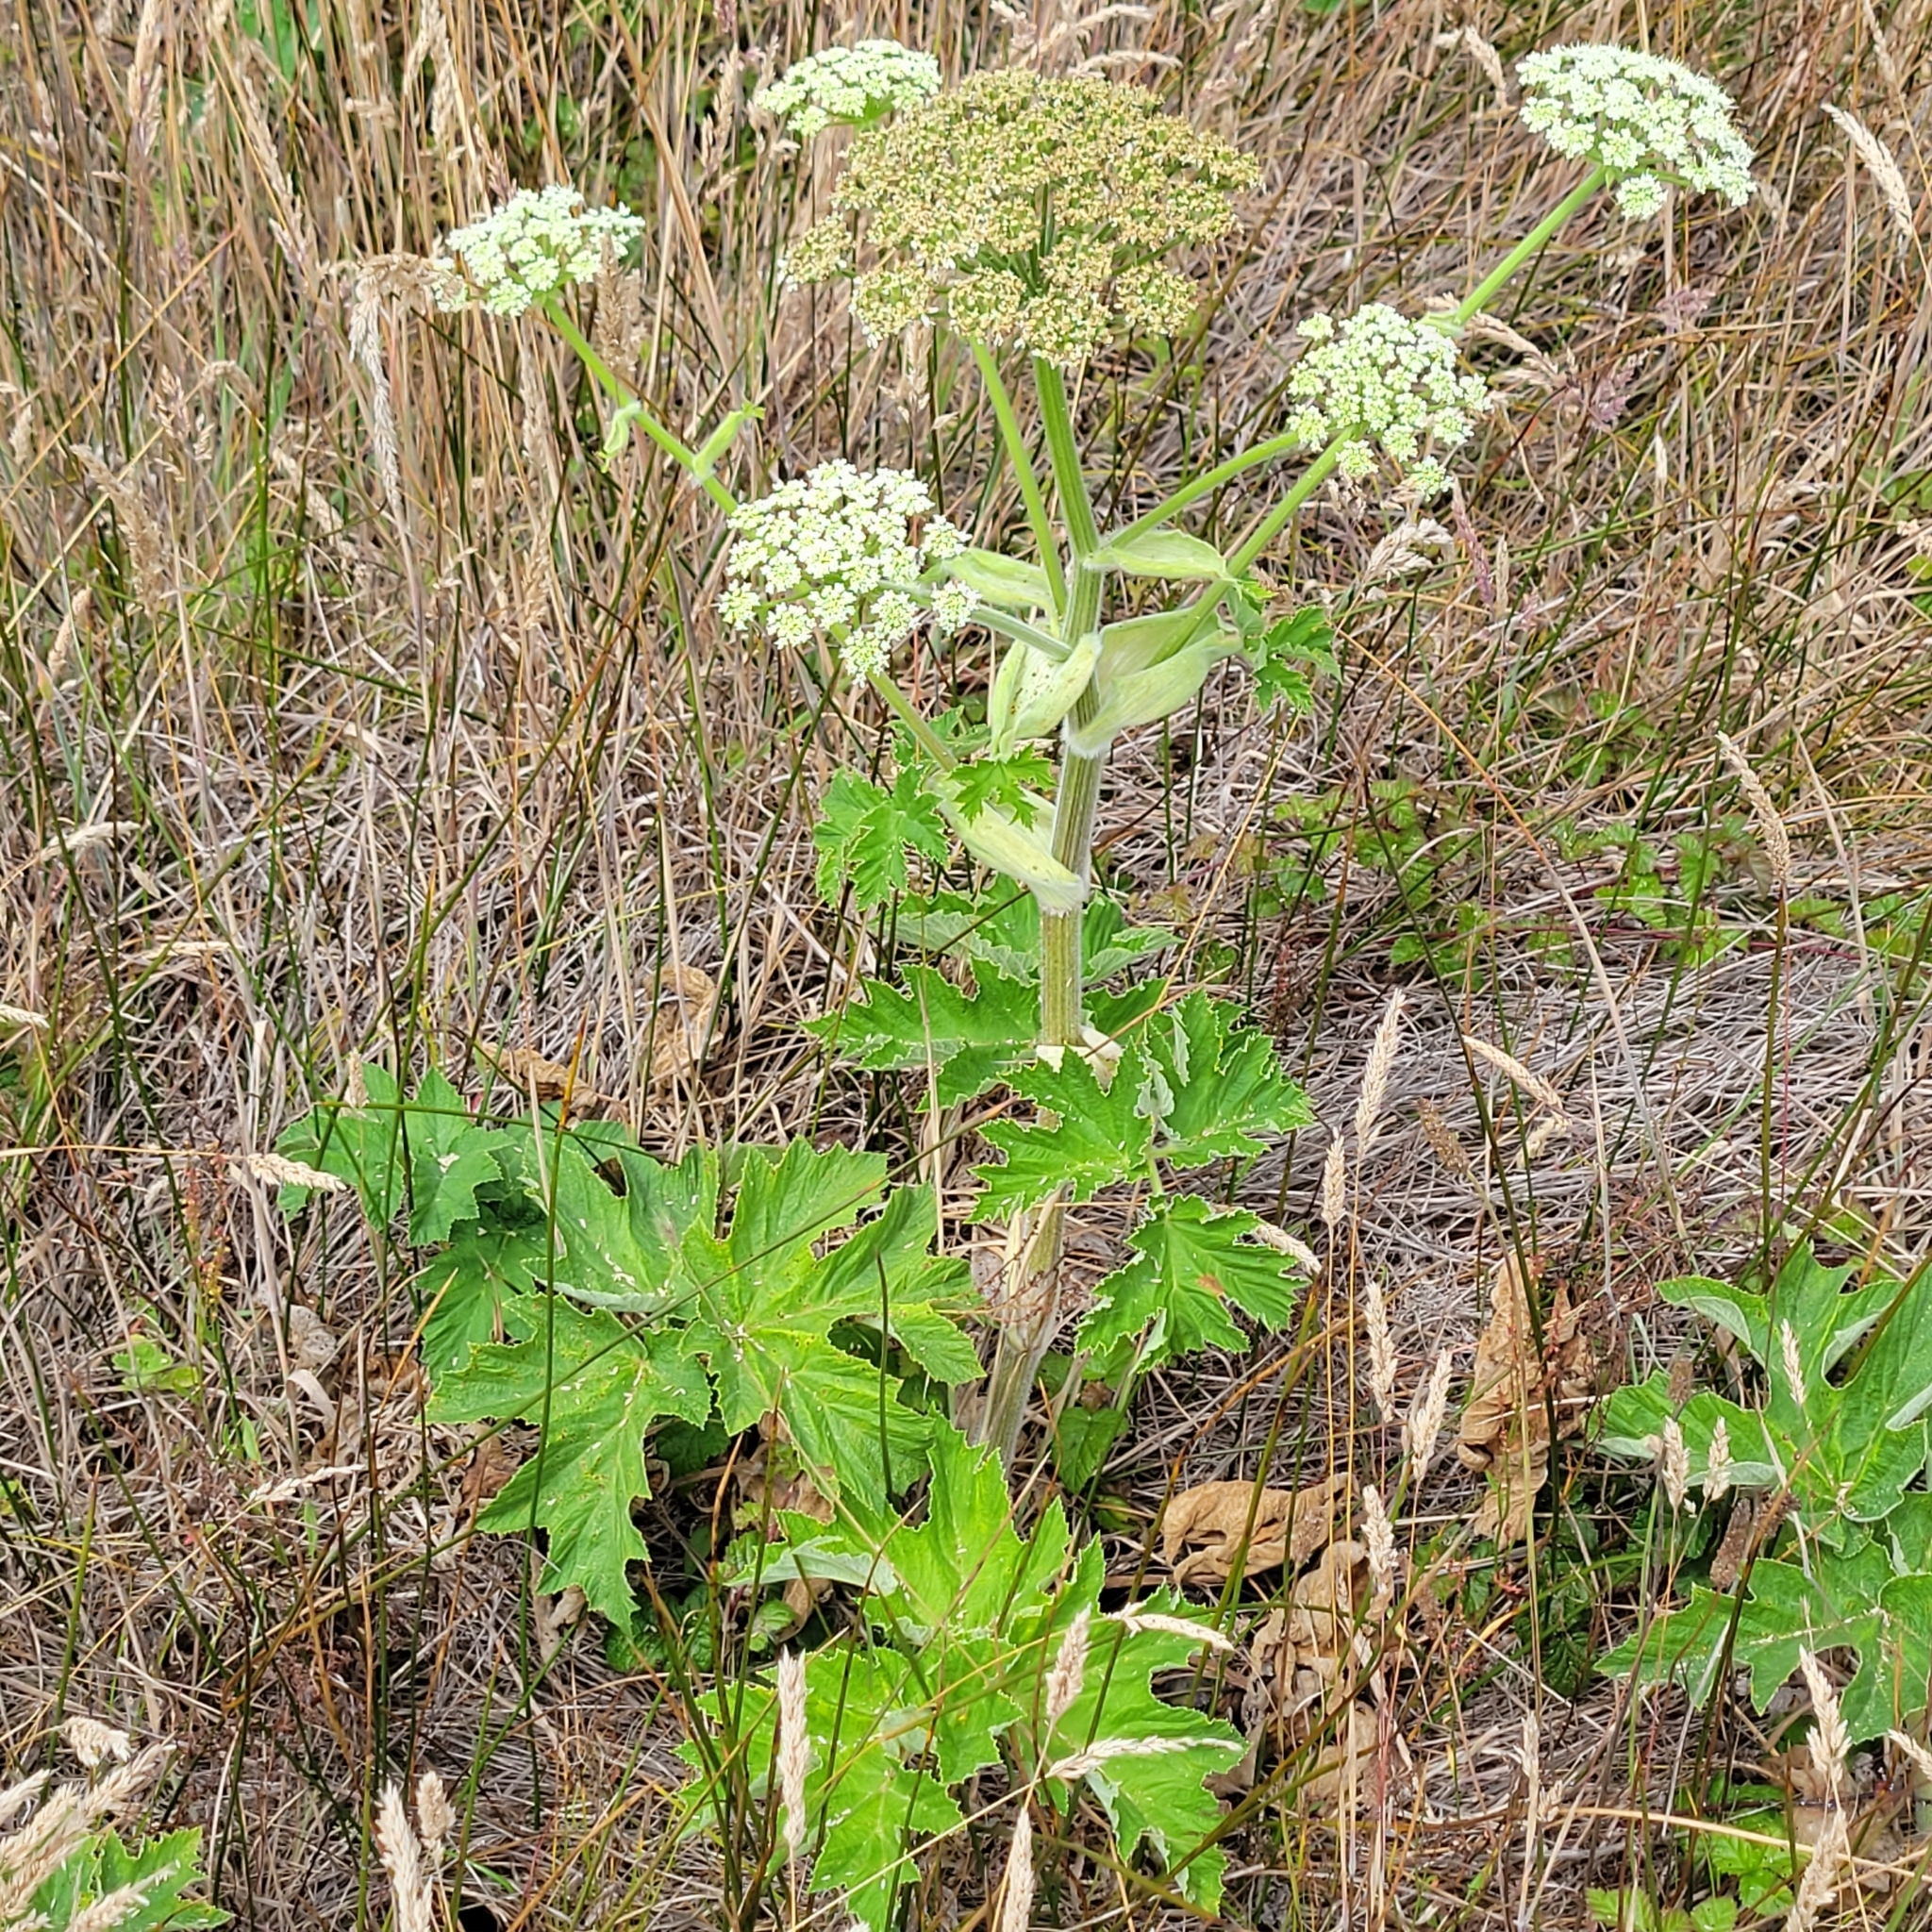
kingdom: Plantae
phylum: Tracheophyta
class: Magnoliopsida
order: Apiales
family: Apiaceae
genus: Heracleum
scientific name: Heracleum maximum
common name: American cow parsnip
